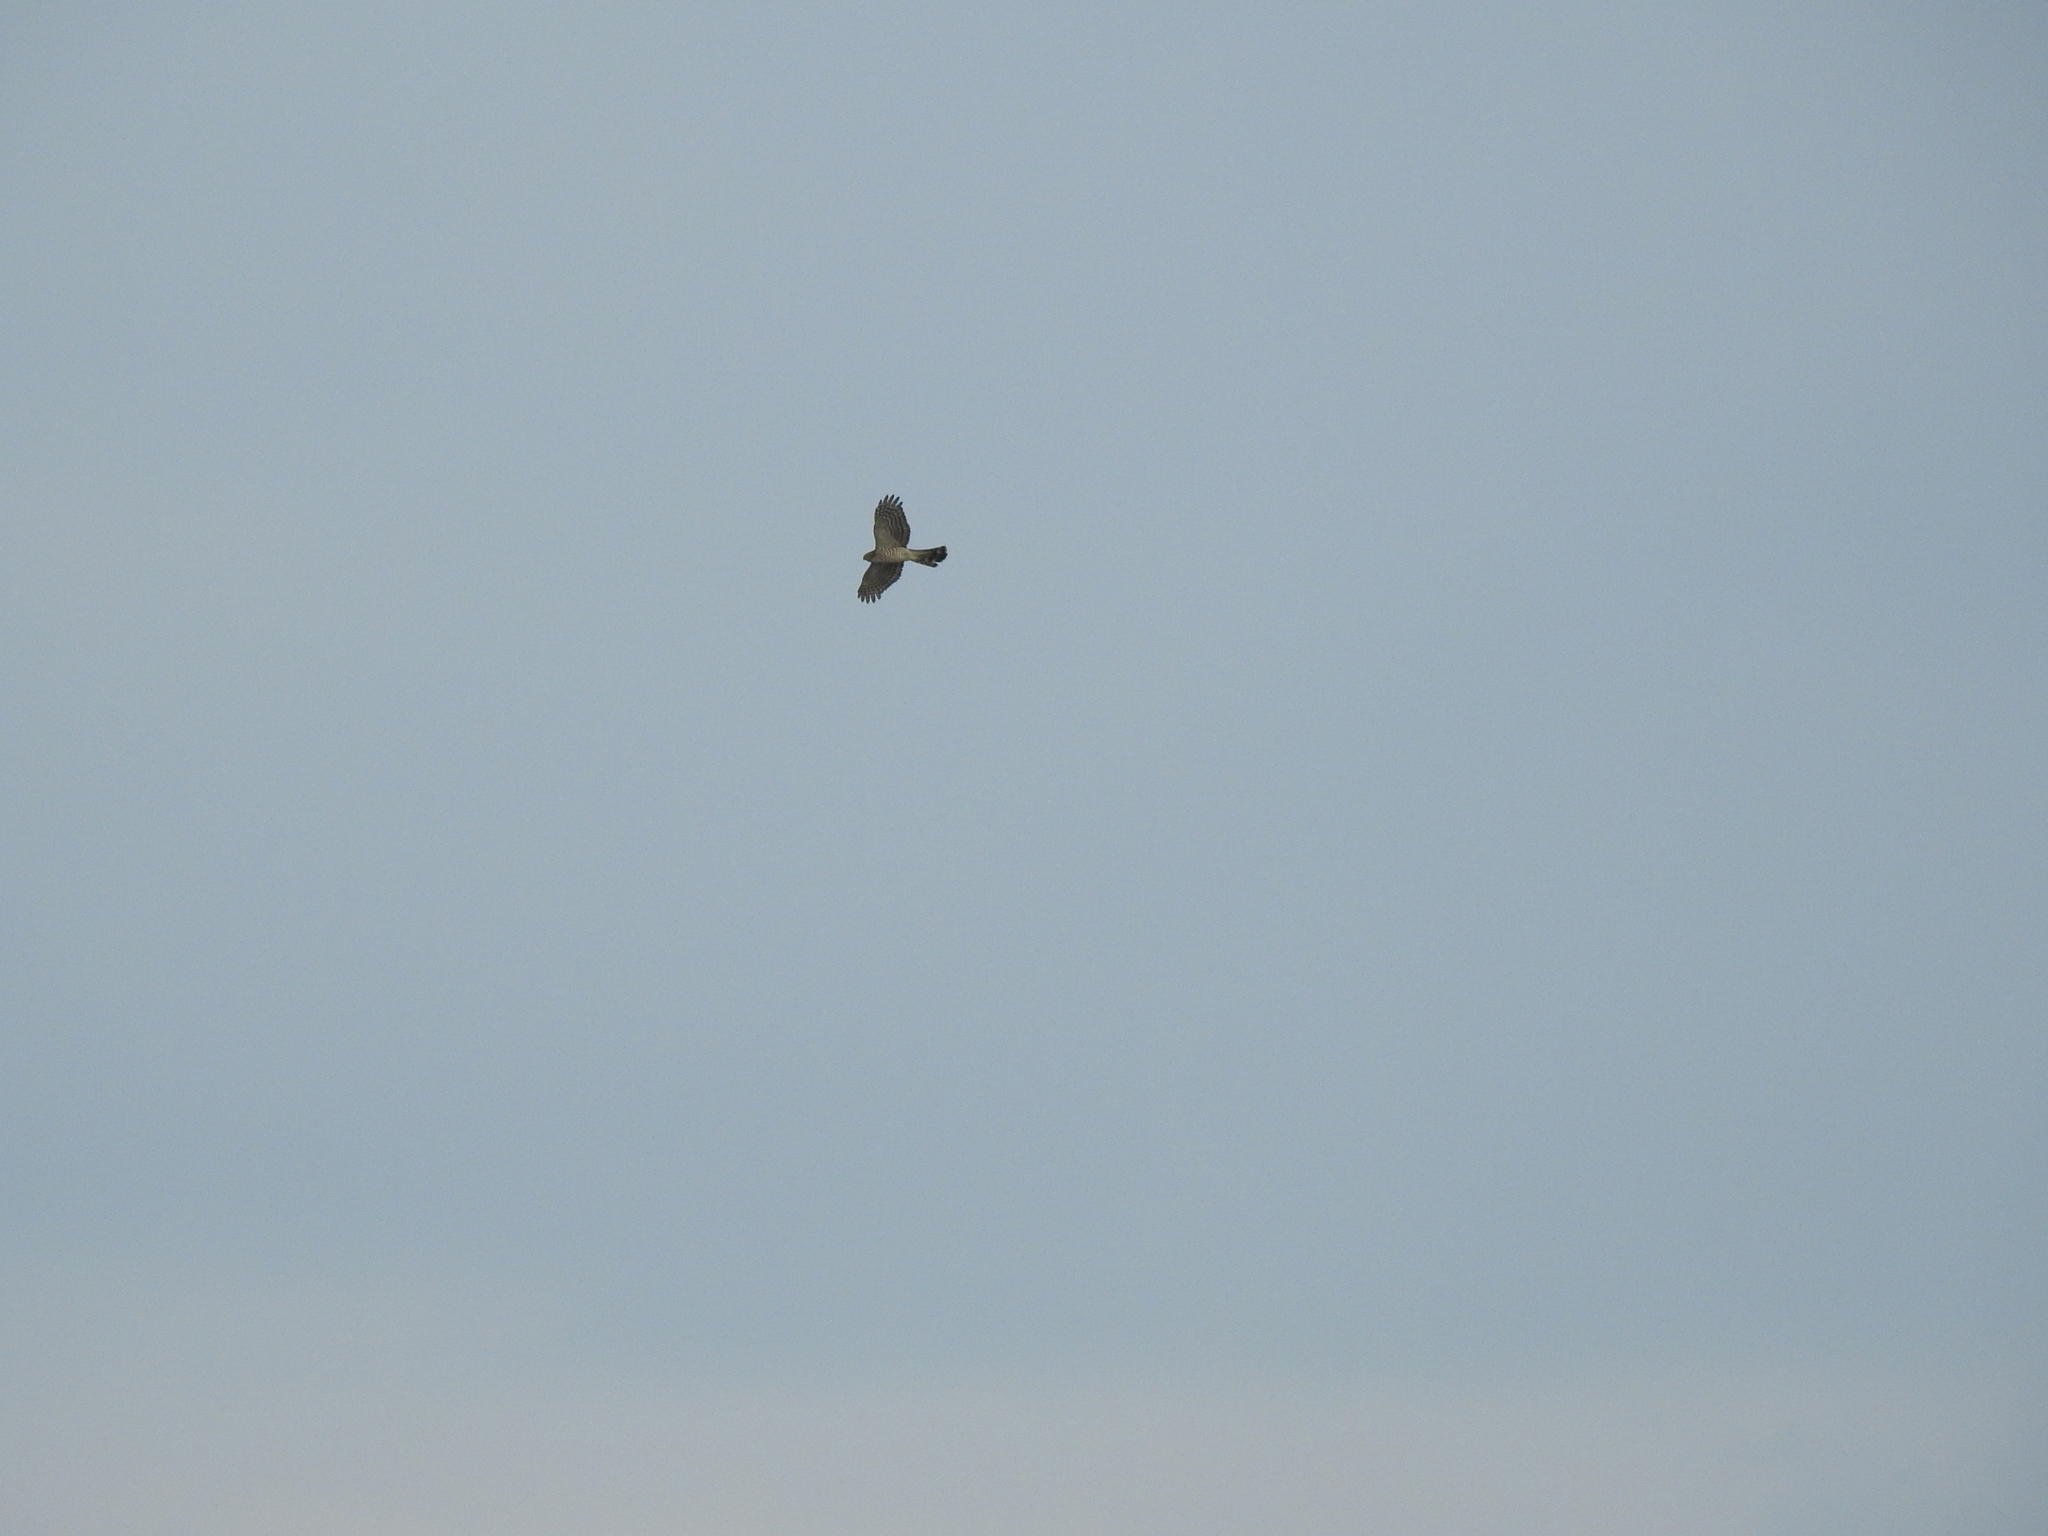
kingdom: Animalia
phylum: Chordata
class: Aves
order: Accipitriformes
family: Accipitridae
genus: Accipiter
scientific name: Accipiter nisus
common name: Eurasian sparrowhawk
